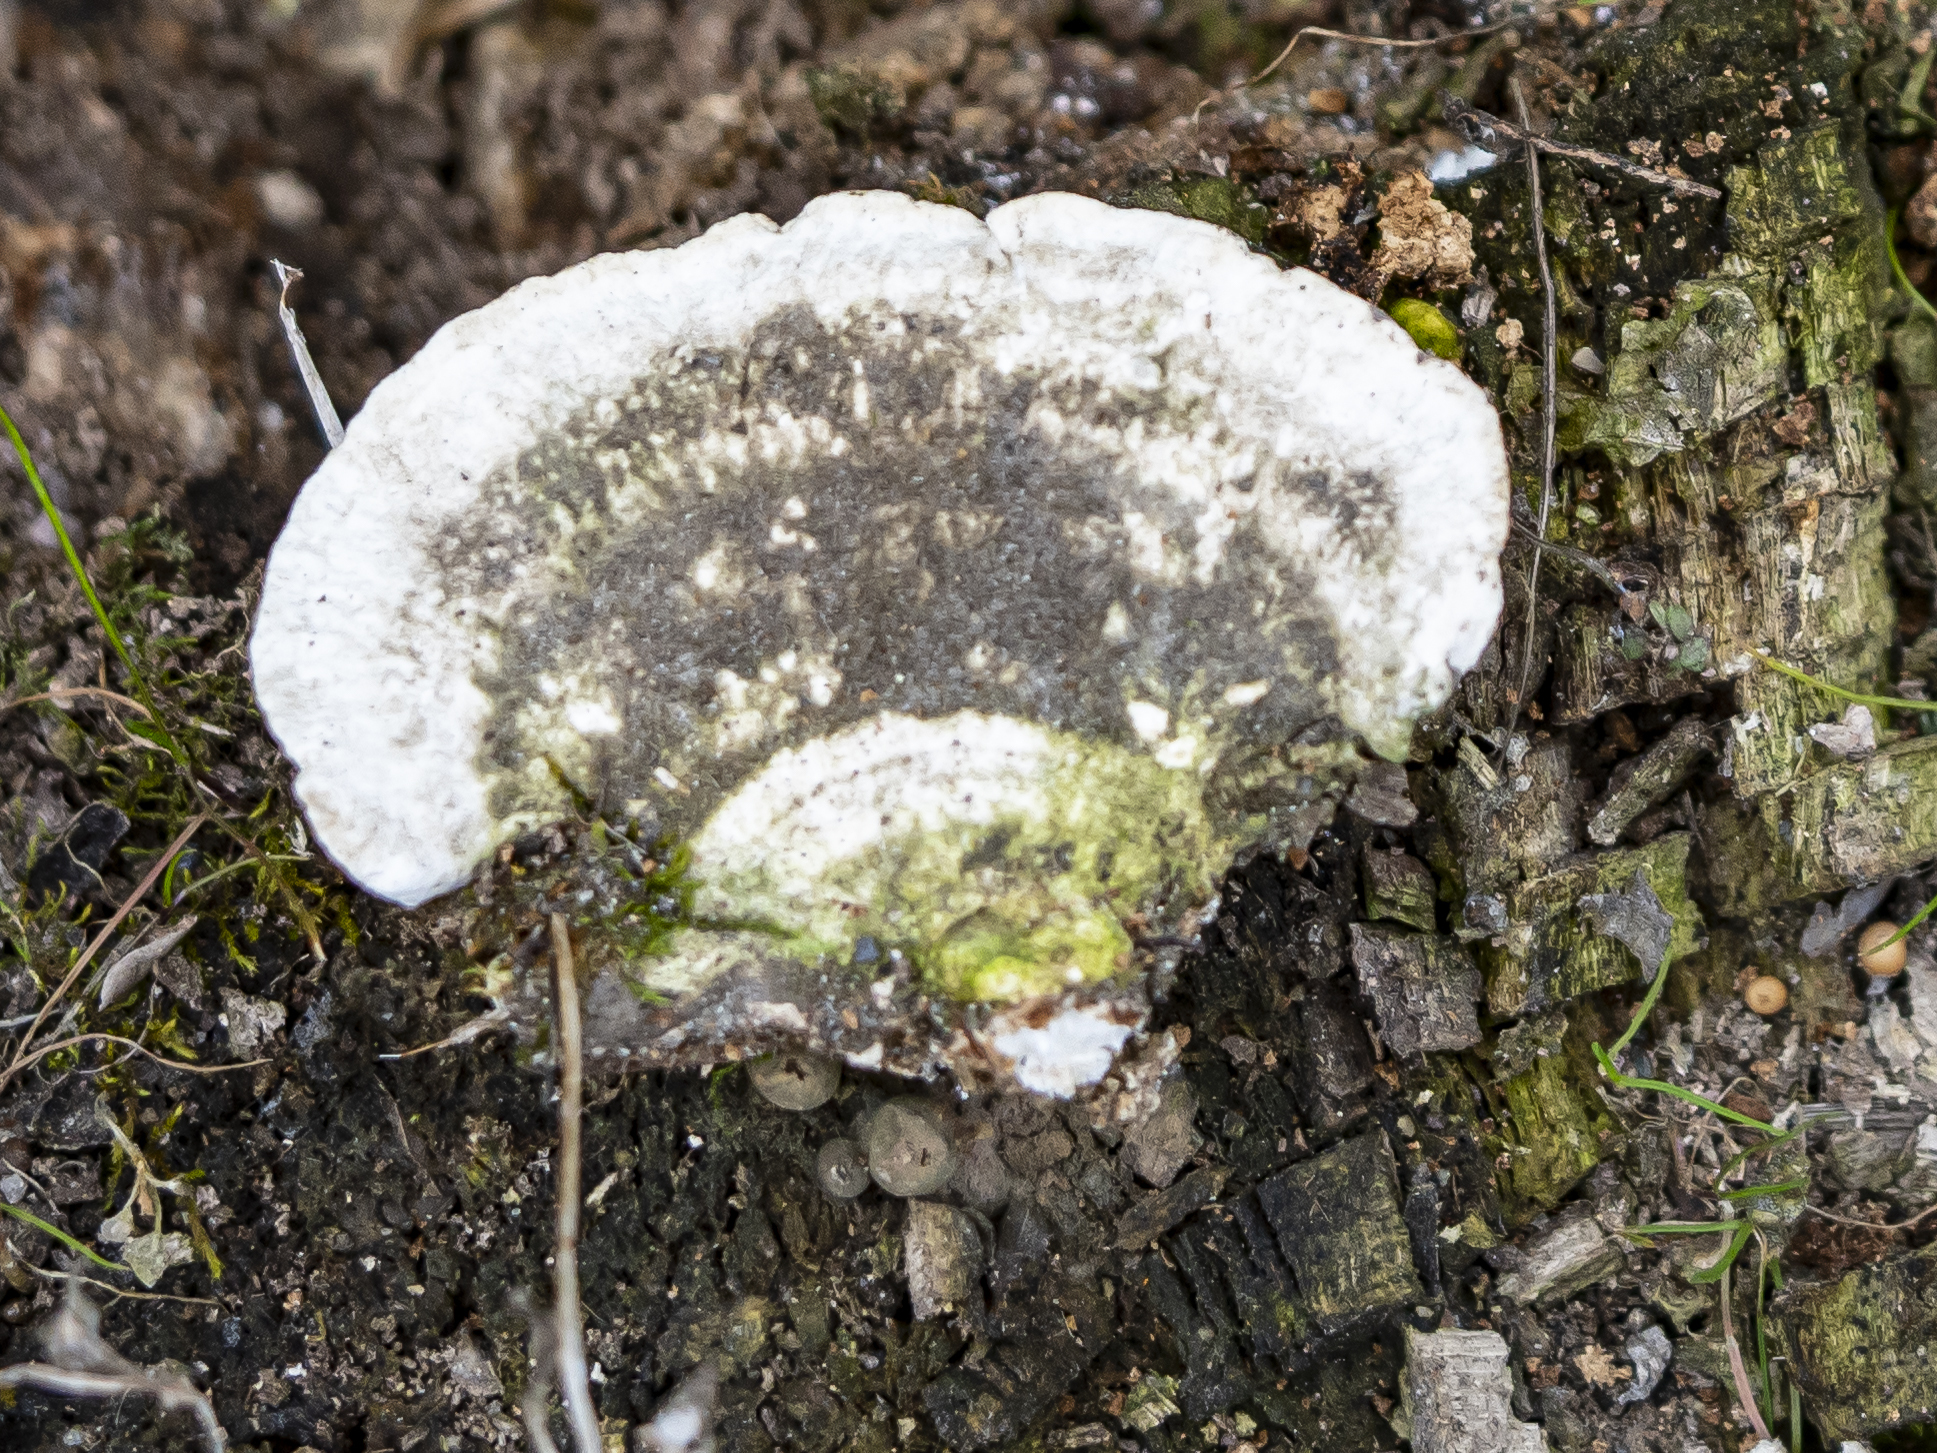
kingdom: Fungi
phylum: Basidiomycota
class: Agaricomycetes
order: Polyporales
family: Polyporaceae
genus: Trametes
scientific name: Trametes gibbosa
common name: Lumpy bracket
